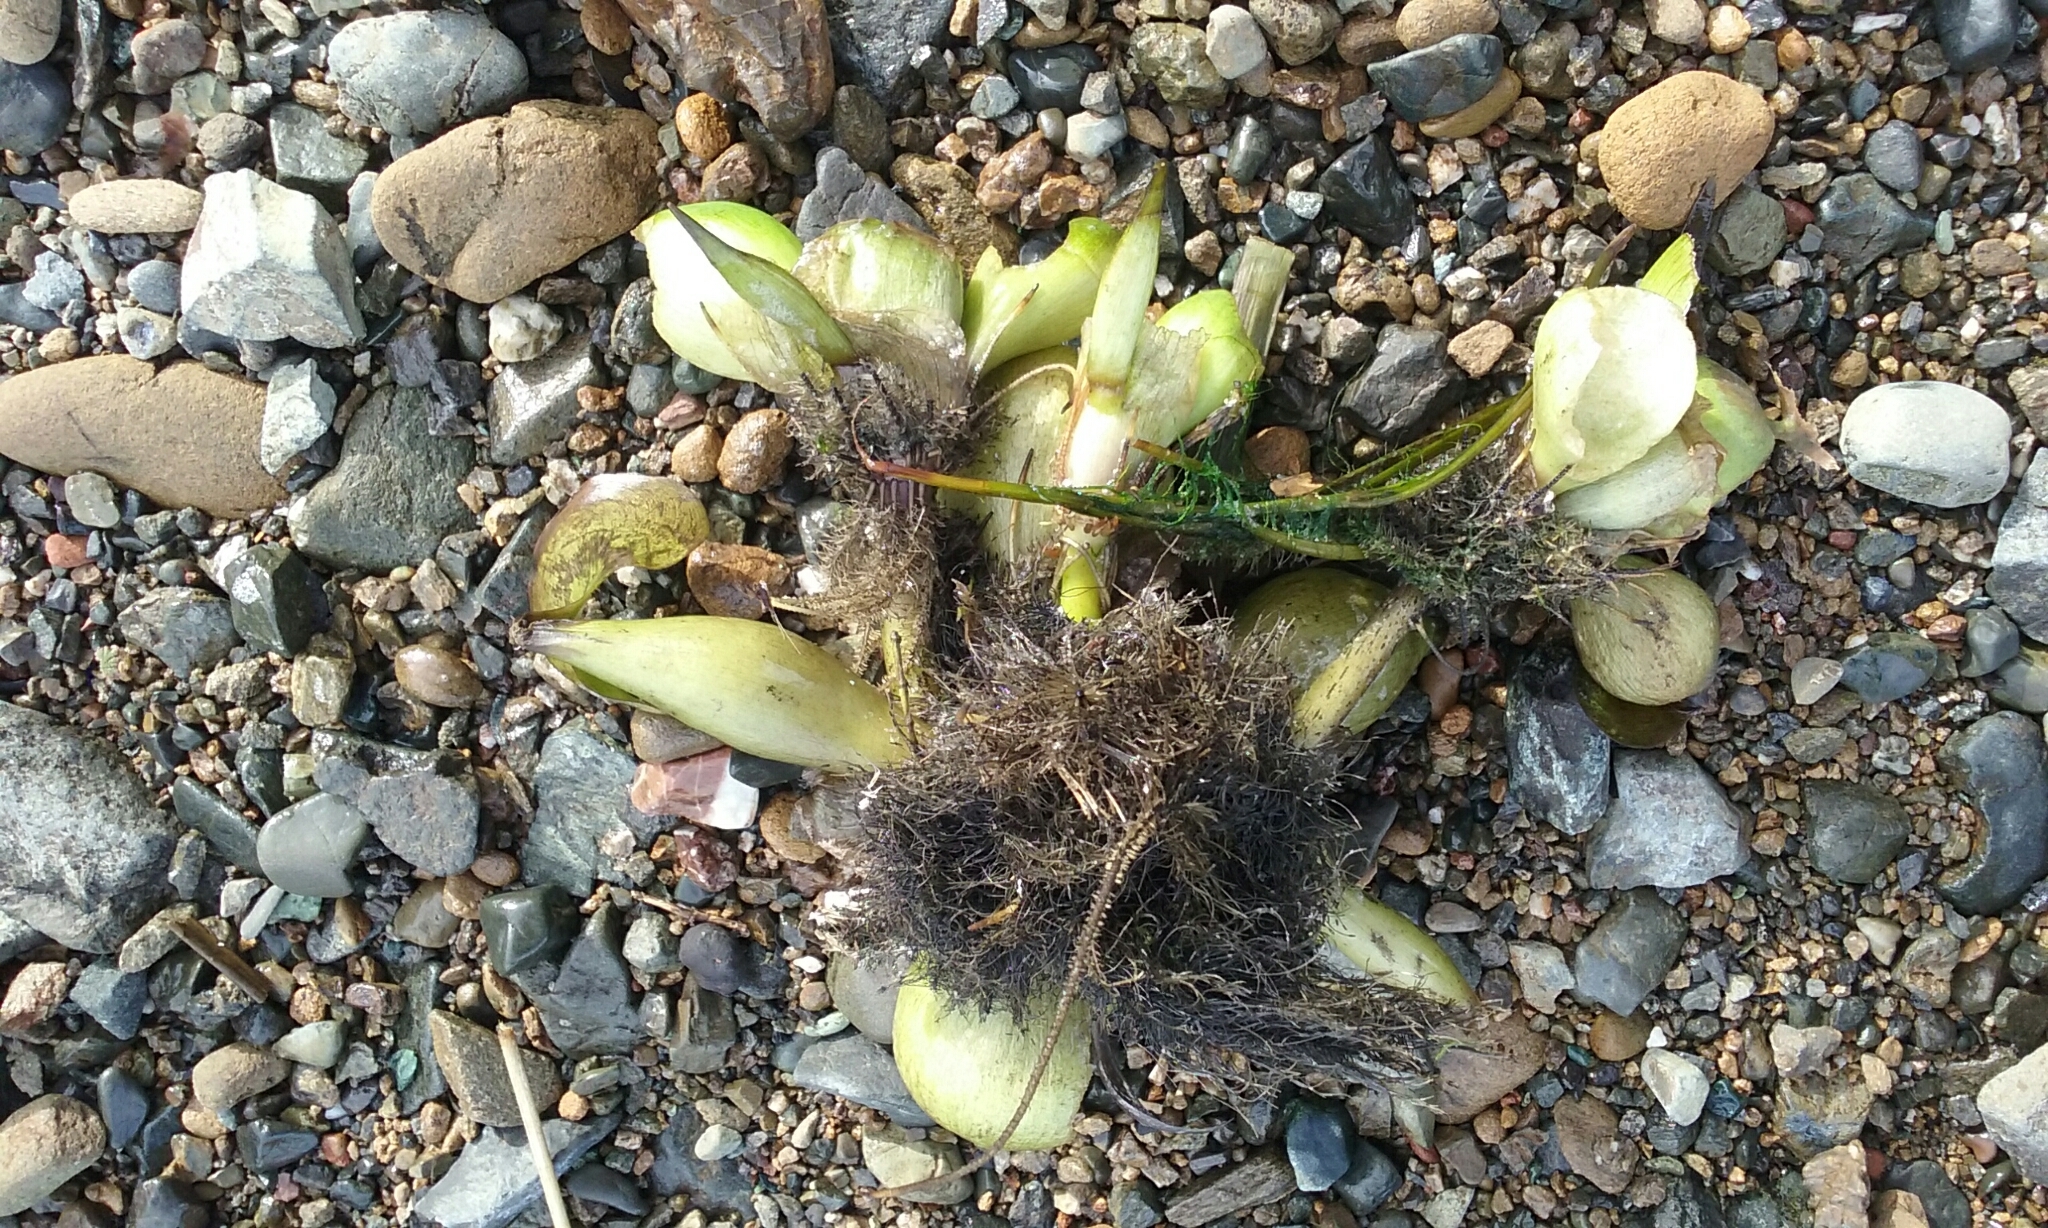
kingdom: Plantae
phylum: Tracheophyta
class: Liliopsida
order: Commelinales
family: Pontederiaceae
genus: Pontederia
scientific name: Pontederia crassipes
